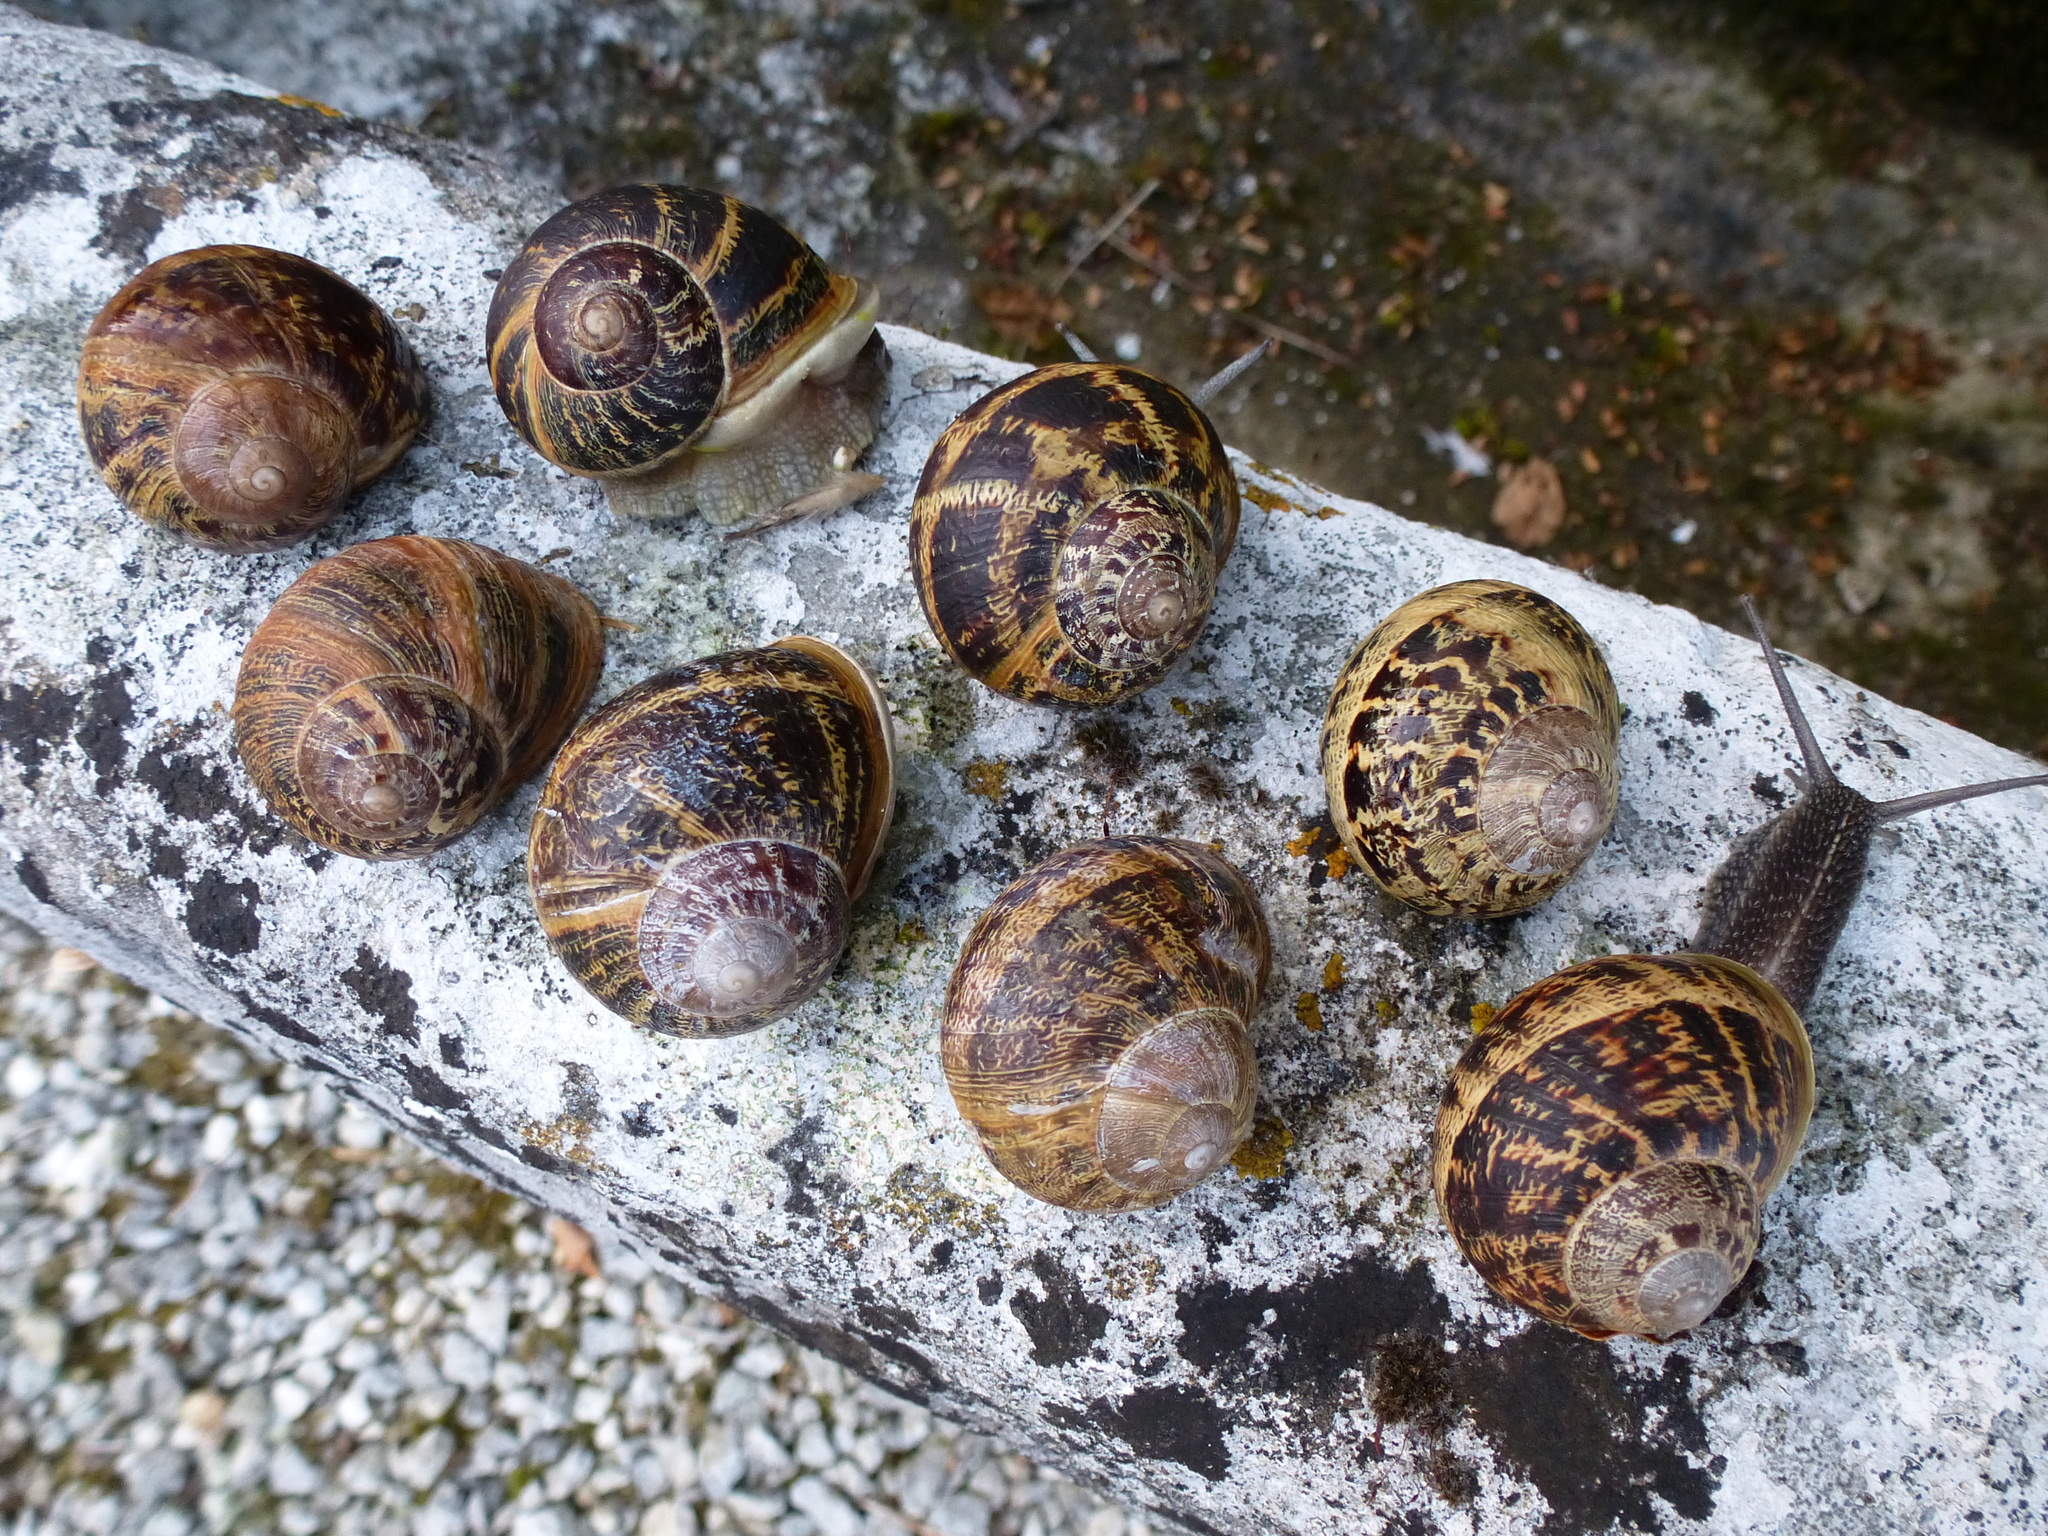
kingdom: Animalia
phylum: Mollusca
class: Gastropoda
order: Stylommatophora
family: Helicidae
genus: Cornu
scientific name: Cornu aspersum
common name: Brown garden snail
